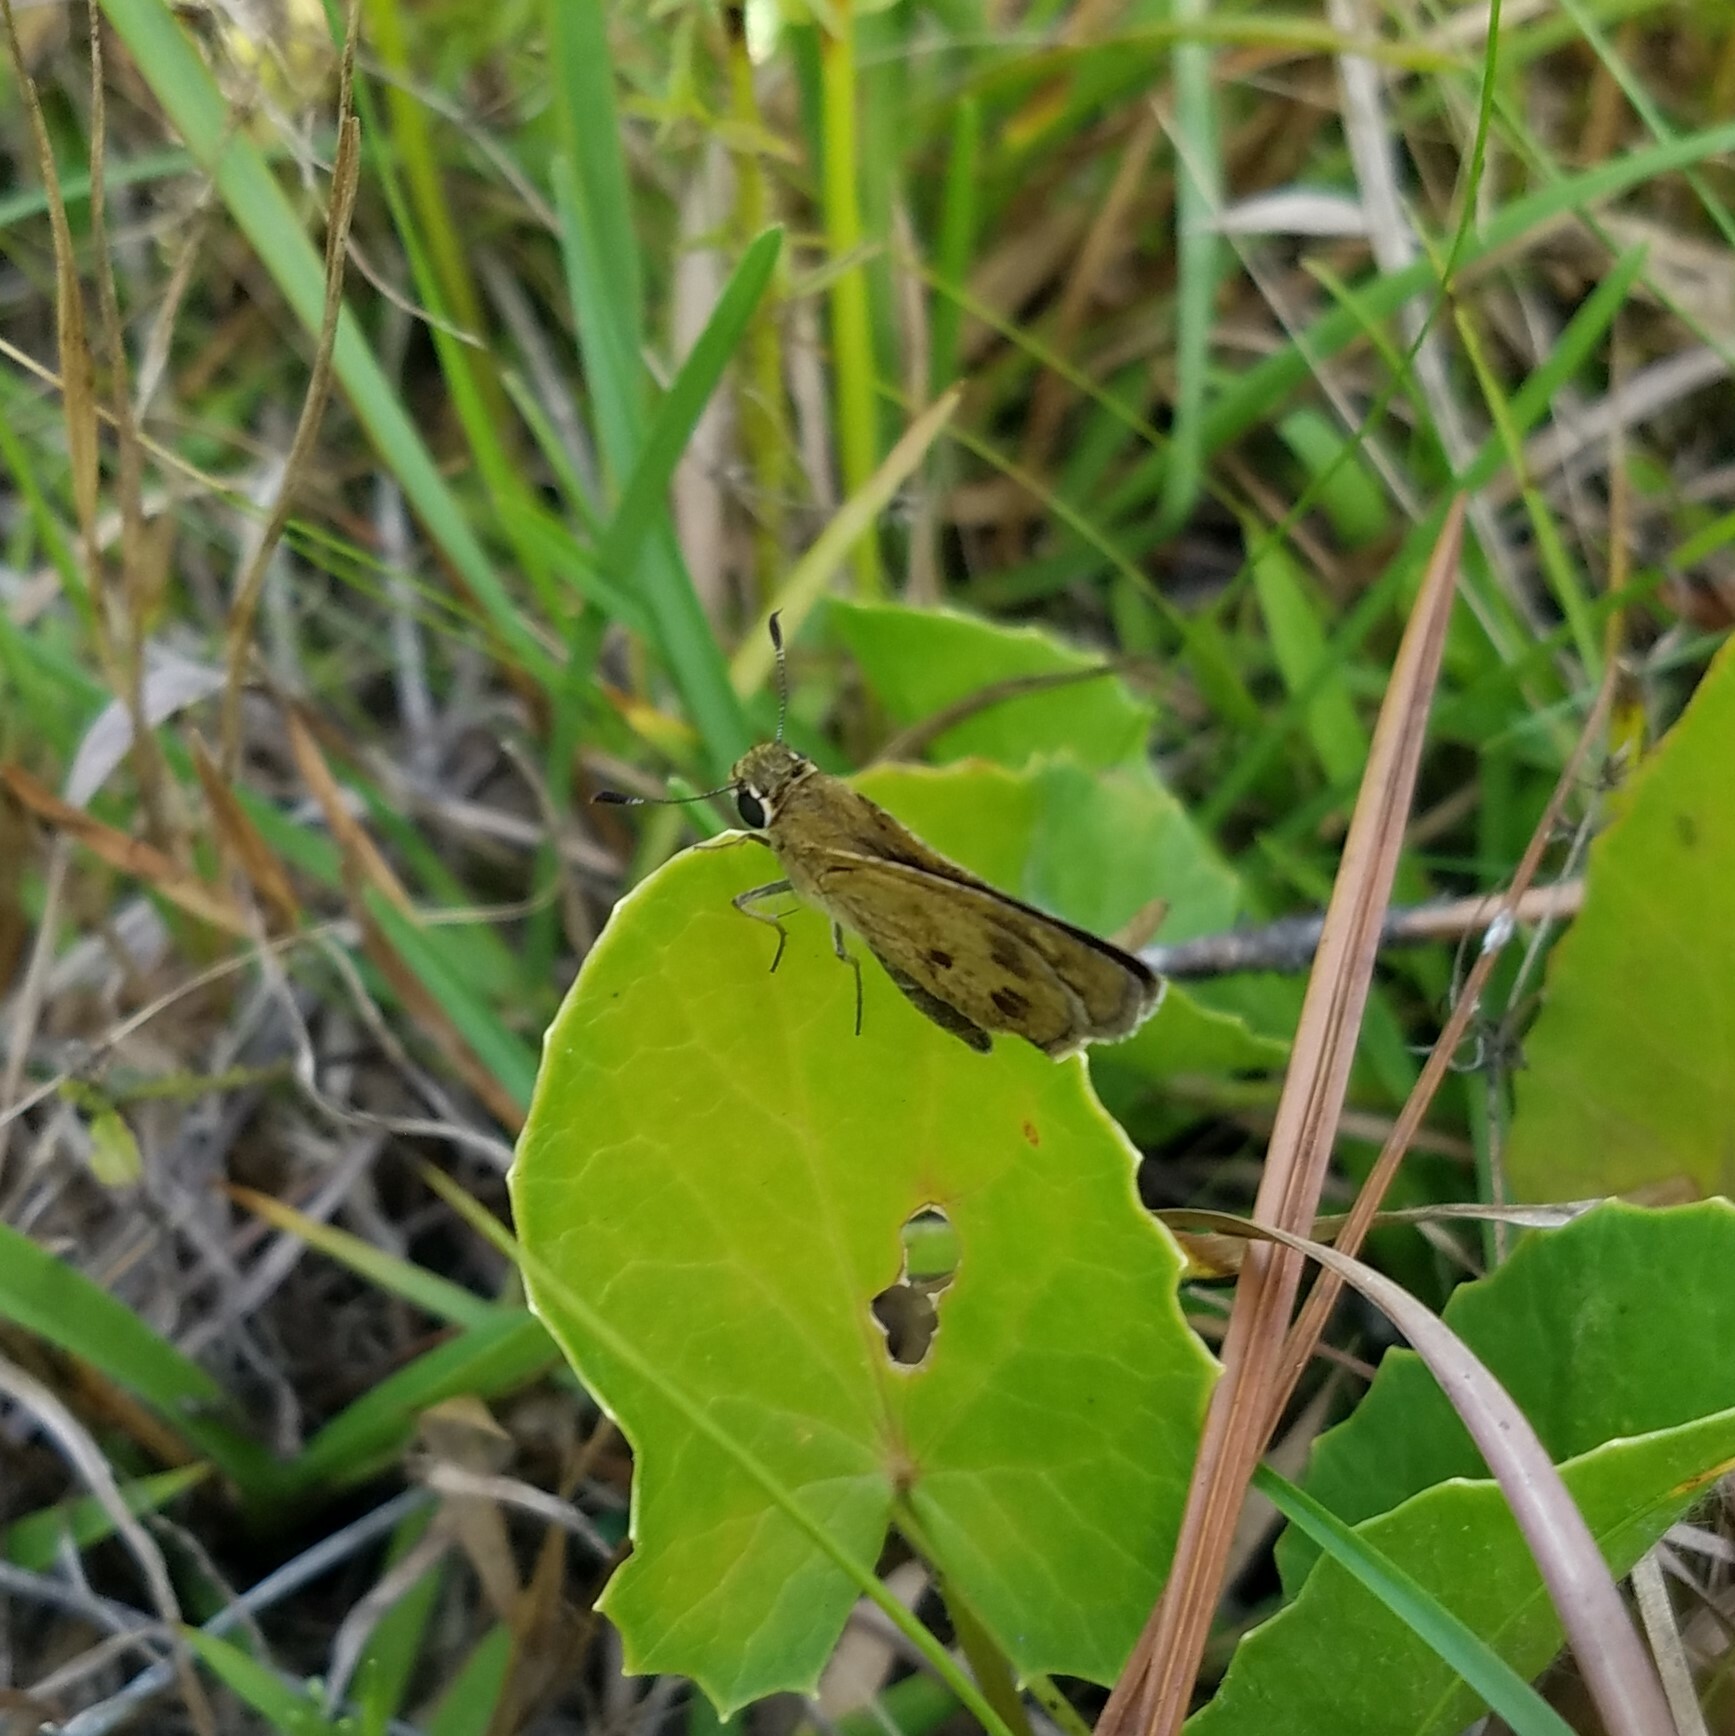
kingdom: Animalia
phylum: Arthropoda
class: Insecta
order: Lepidoptera
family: Hesperiidae
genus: Polites
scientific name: Polites vibex
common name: Whirlabout
